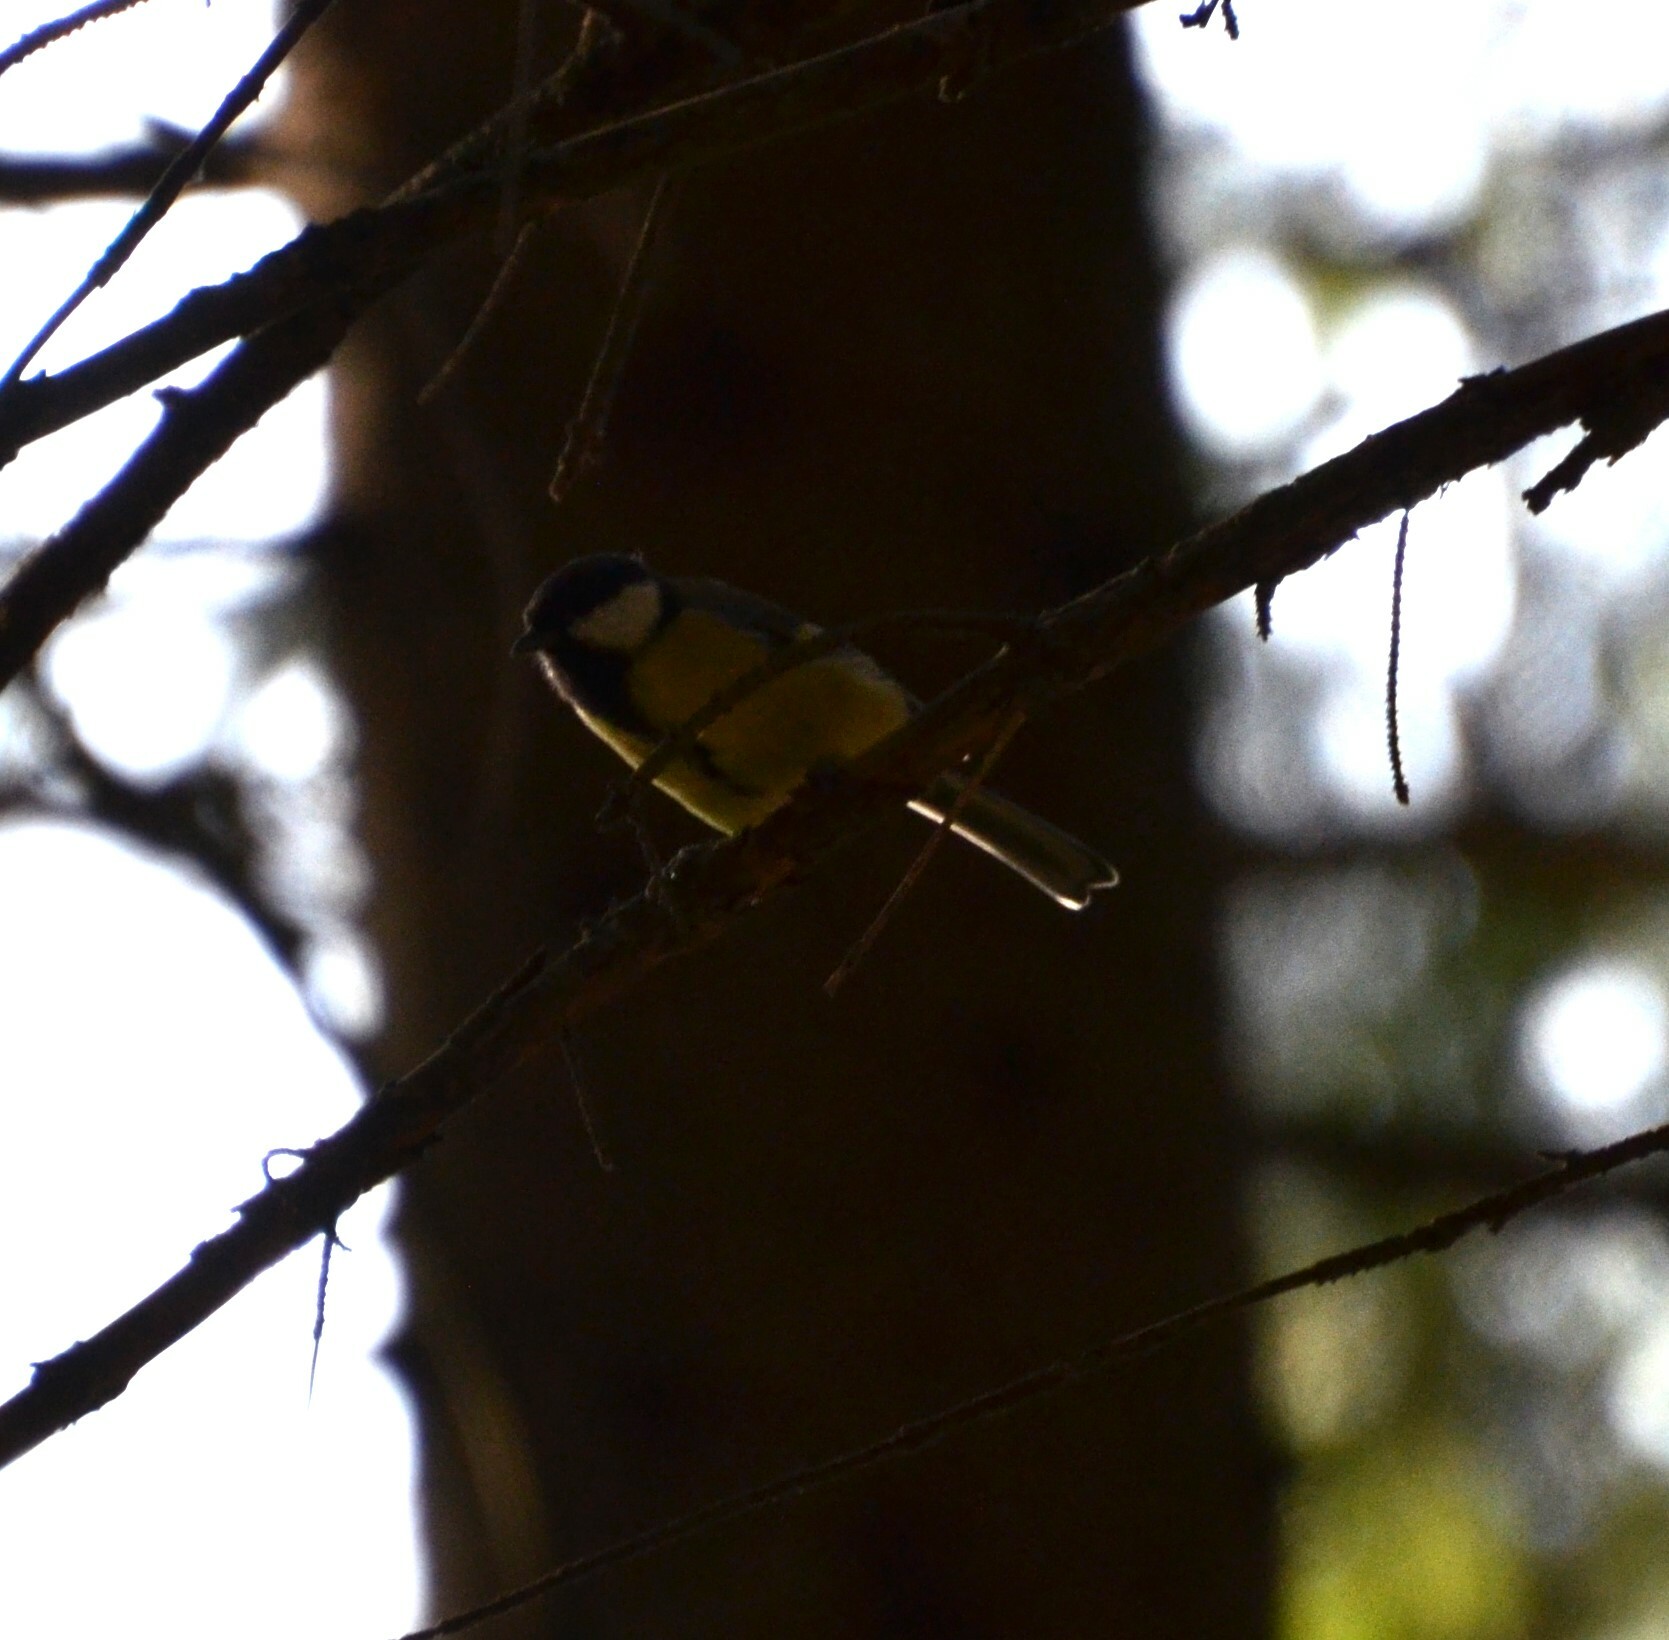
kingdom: Animalia
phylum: Chordata
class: Aves
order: Passeriformes
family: Paridae
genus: Parus
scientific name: Parus major
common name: Great tit
